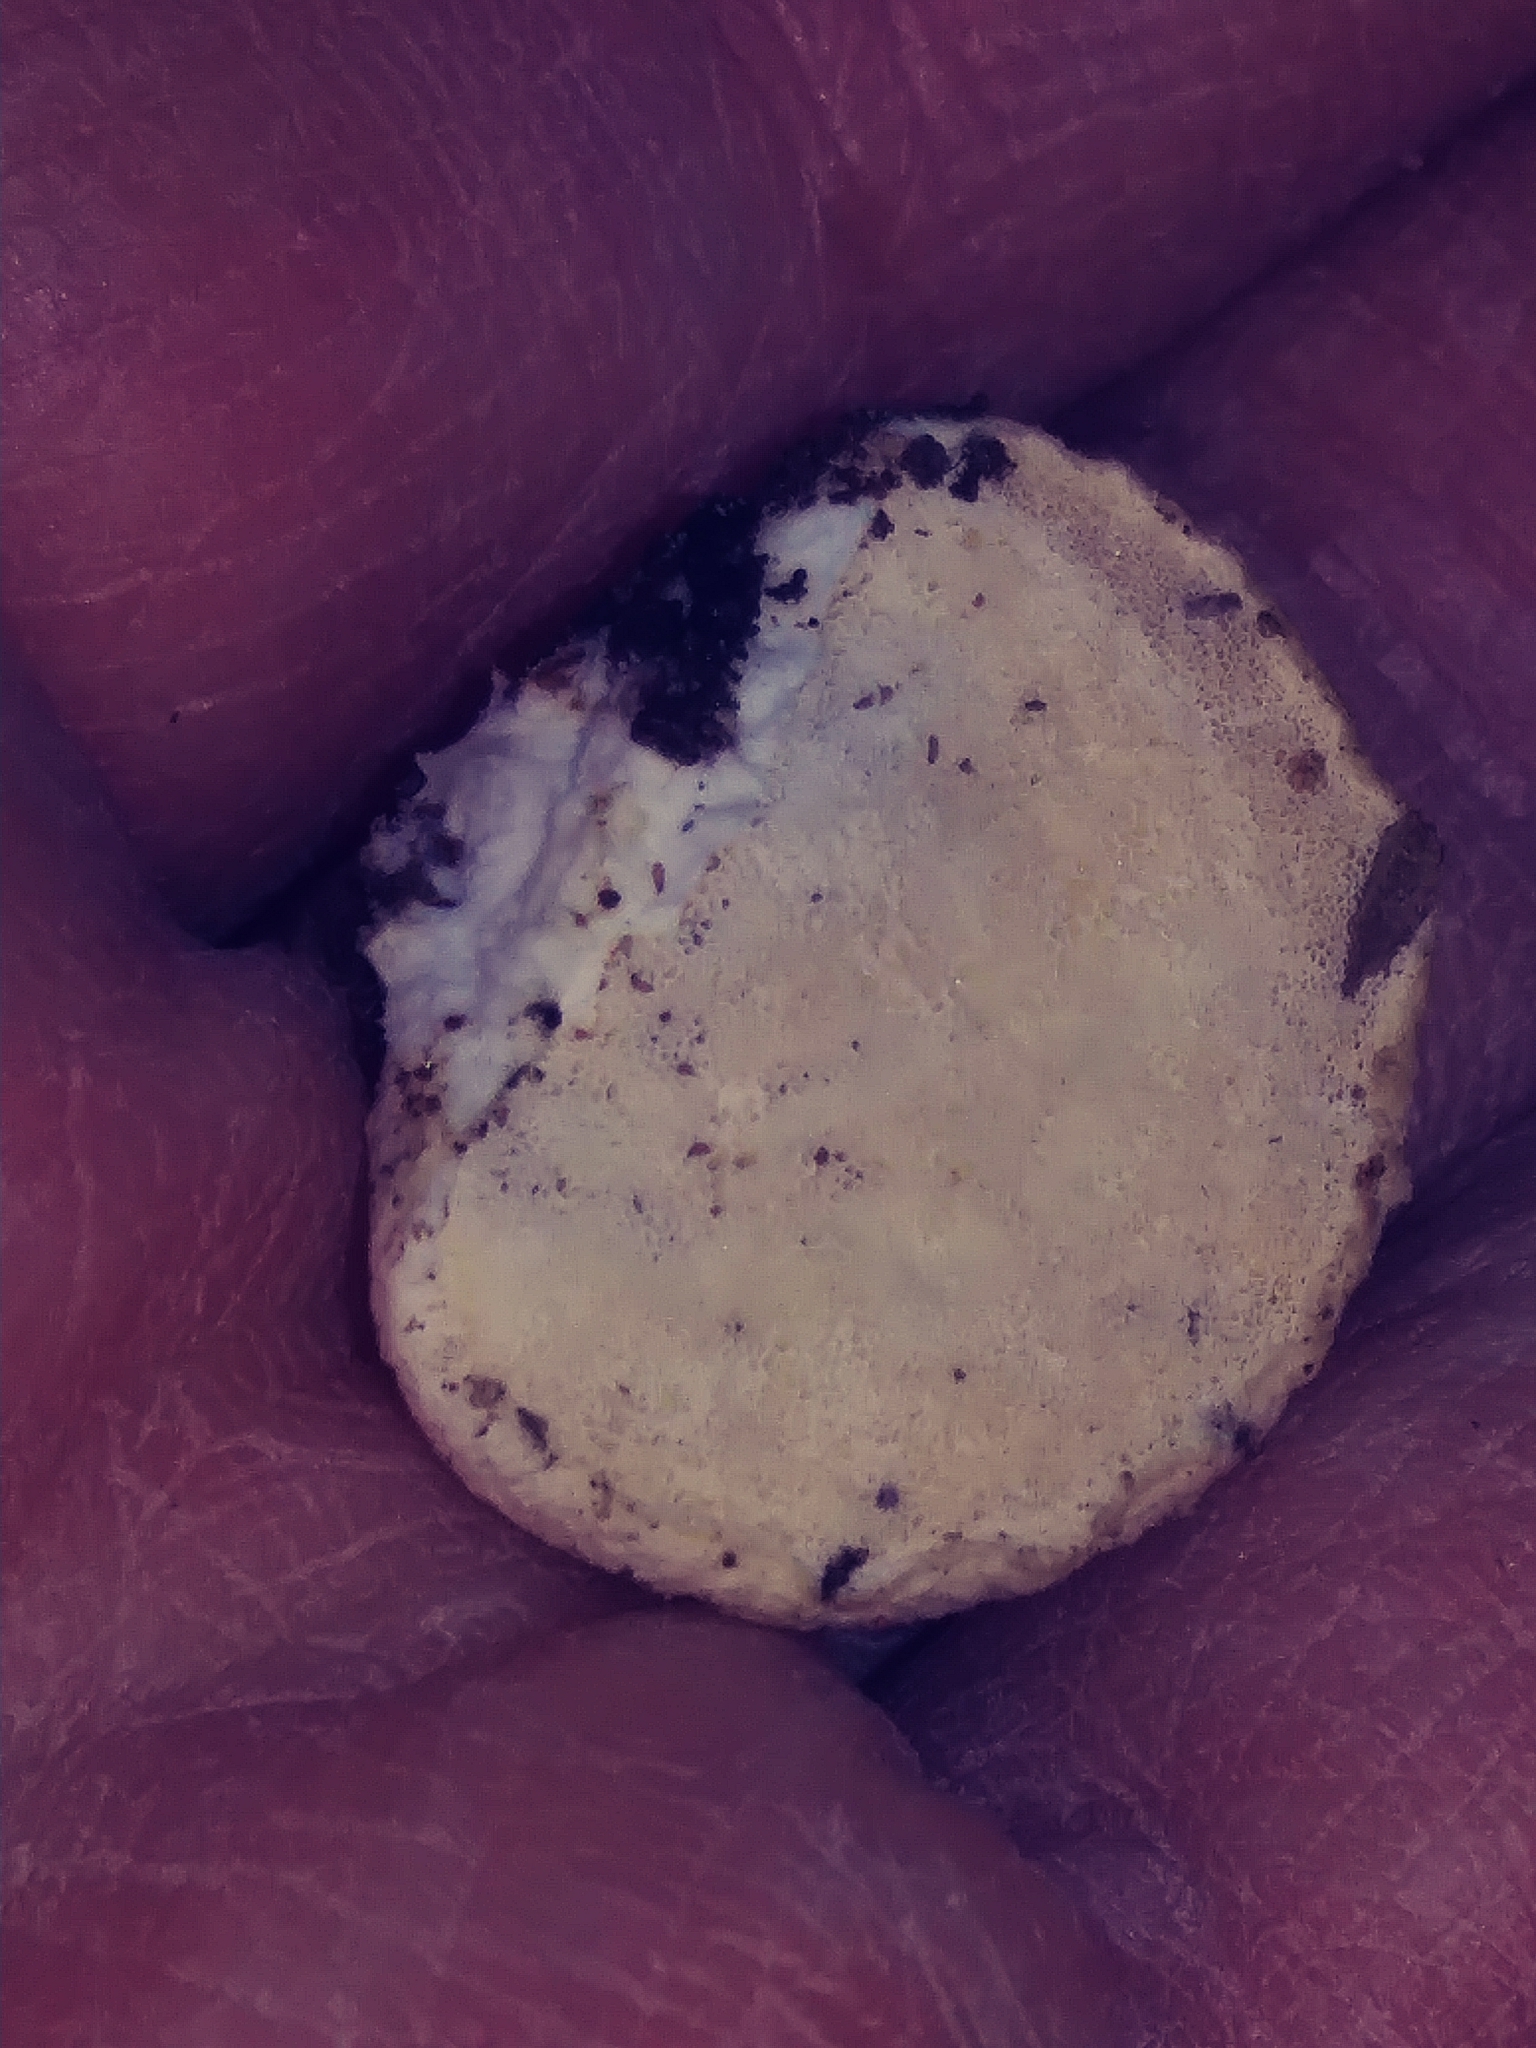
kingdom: Fungi
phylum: Basidiomycota
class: Agaricomycetes
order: Polyporales
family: Polyporaceae
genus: Trametes
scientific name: Trametes gibbosa
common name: Lumpy bracket
